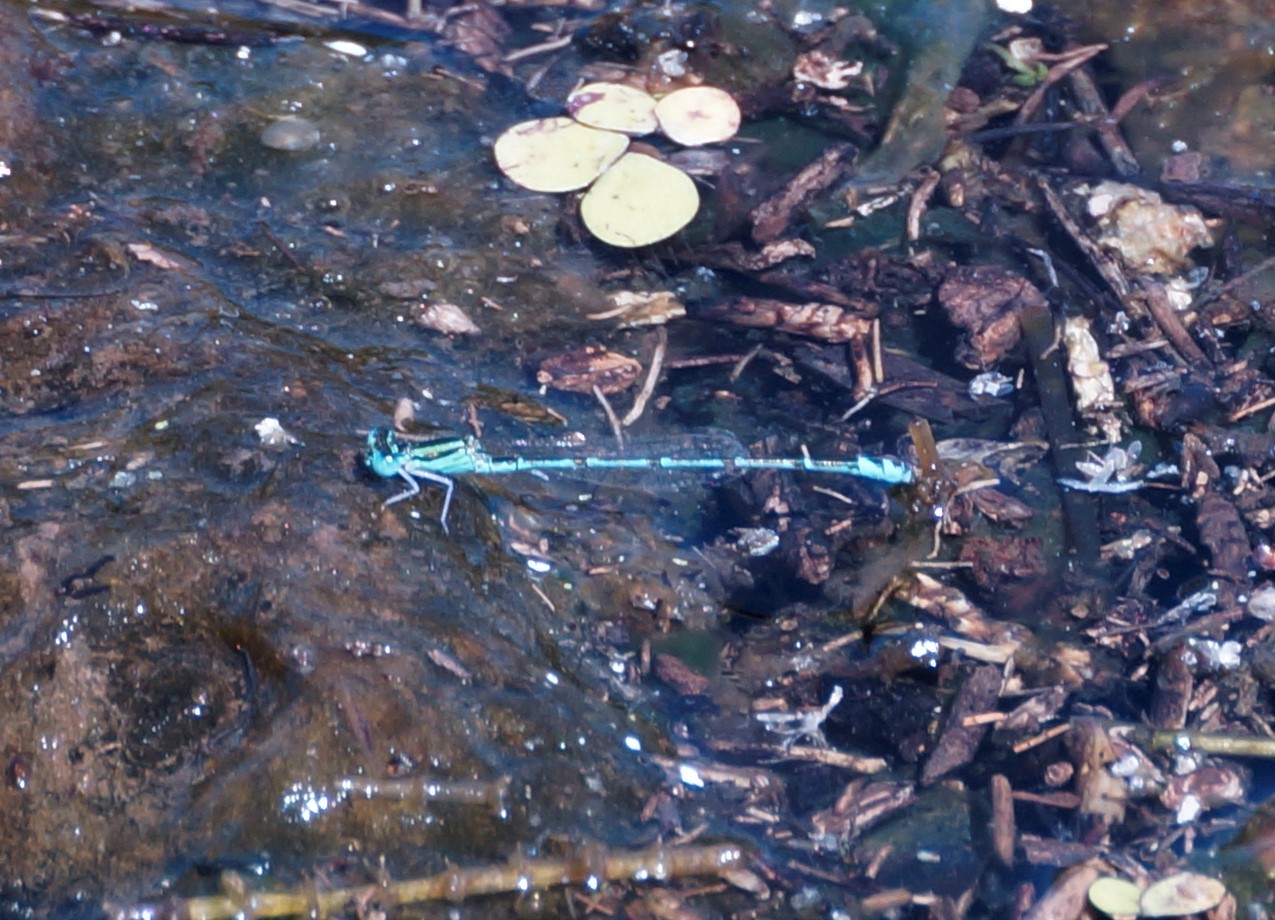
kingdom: Animalia
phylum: Arthropoda
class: Insecta
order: Odonata
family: Coenagrionidae
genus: Austroagrion
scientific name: Austroagrion exclamationis
